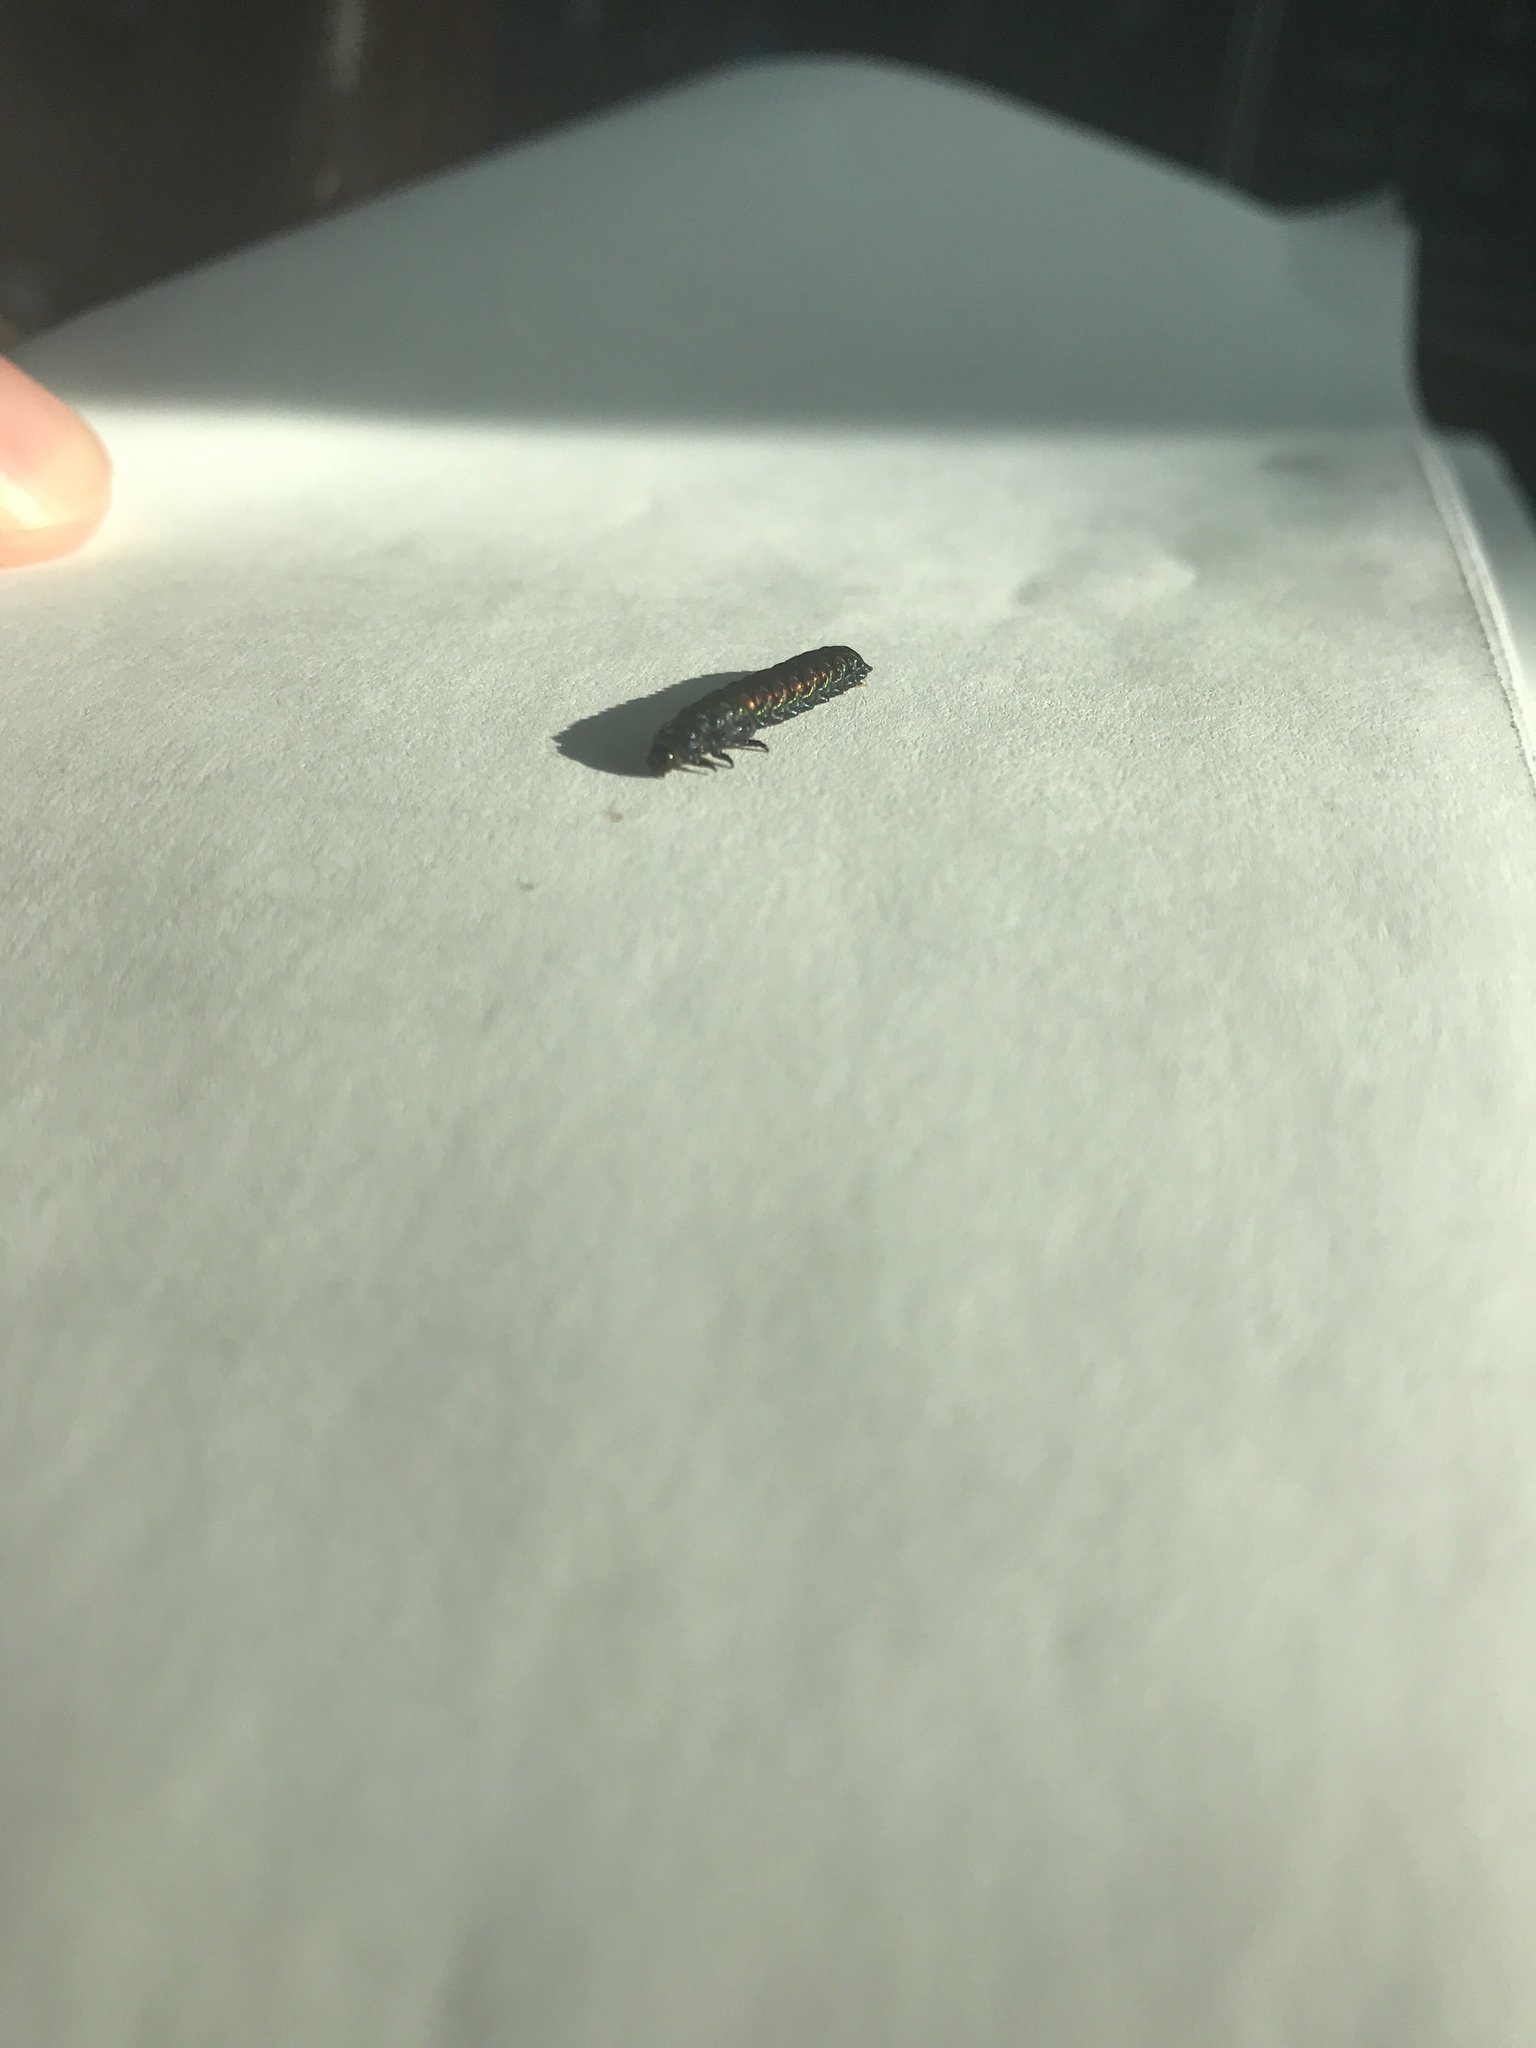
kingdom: Animalia
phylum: Arthropoda
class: Insecta
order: Coleoptera
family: Chrysomelidae
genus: Trirhabda
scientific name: Trirhabda bacharidis
